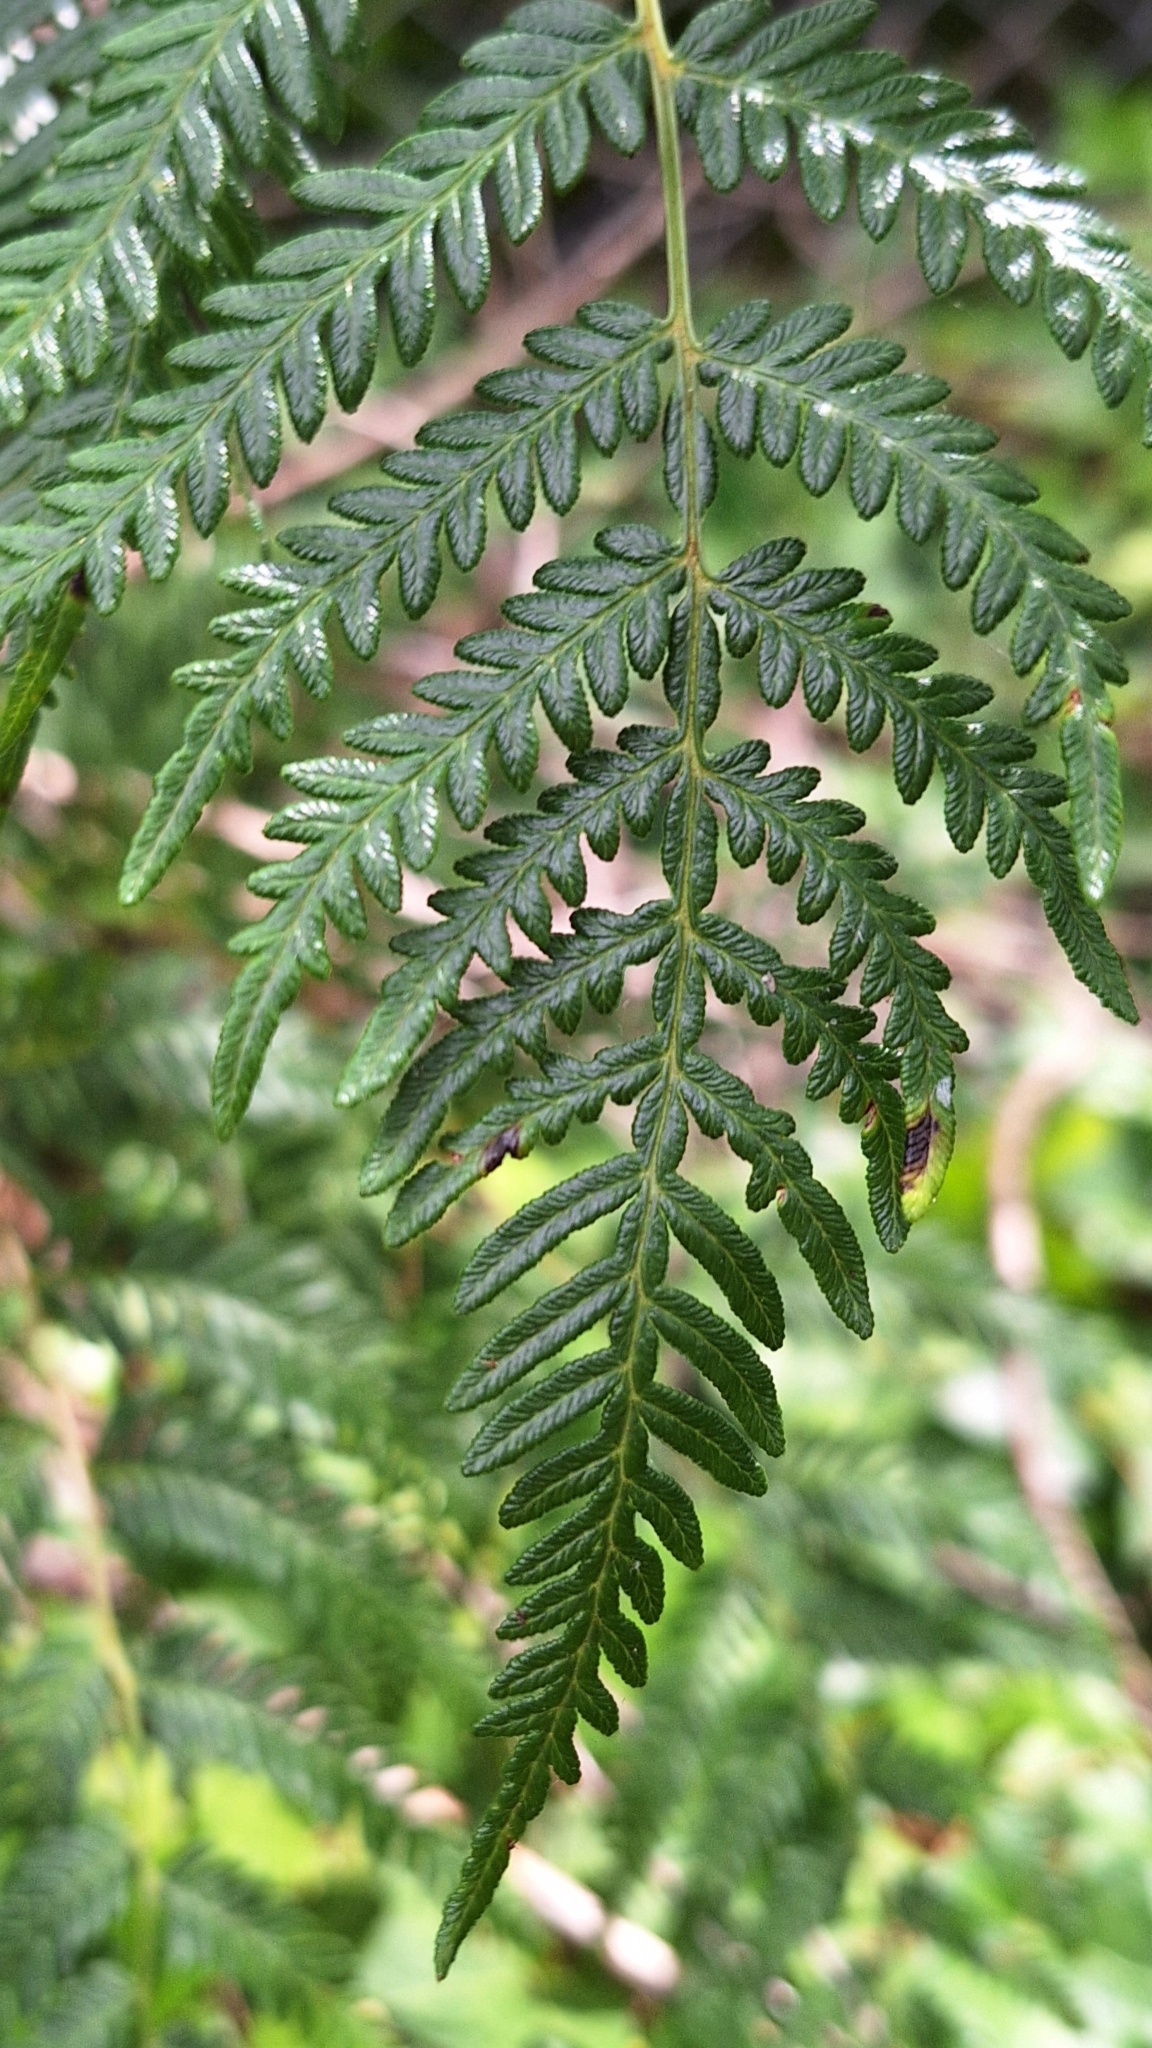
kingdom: Plantae
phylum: Tracheophyta
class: Polypodiopsida
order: Polypodiales
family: Dennstaedtiaceae
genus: Pteridium
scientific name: Pteridium esculentum
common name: Bracken fern
